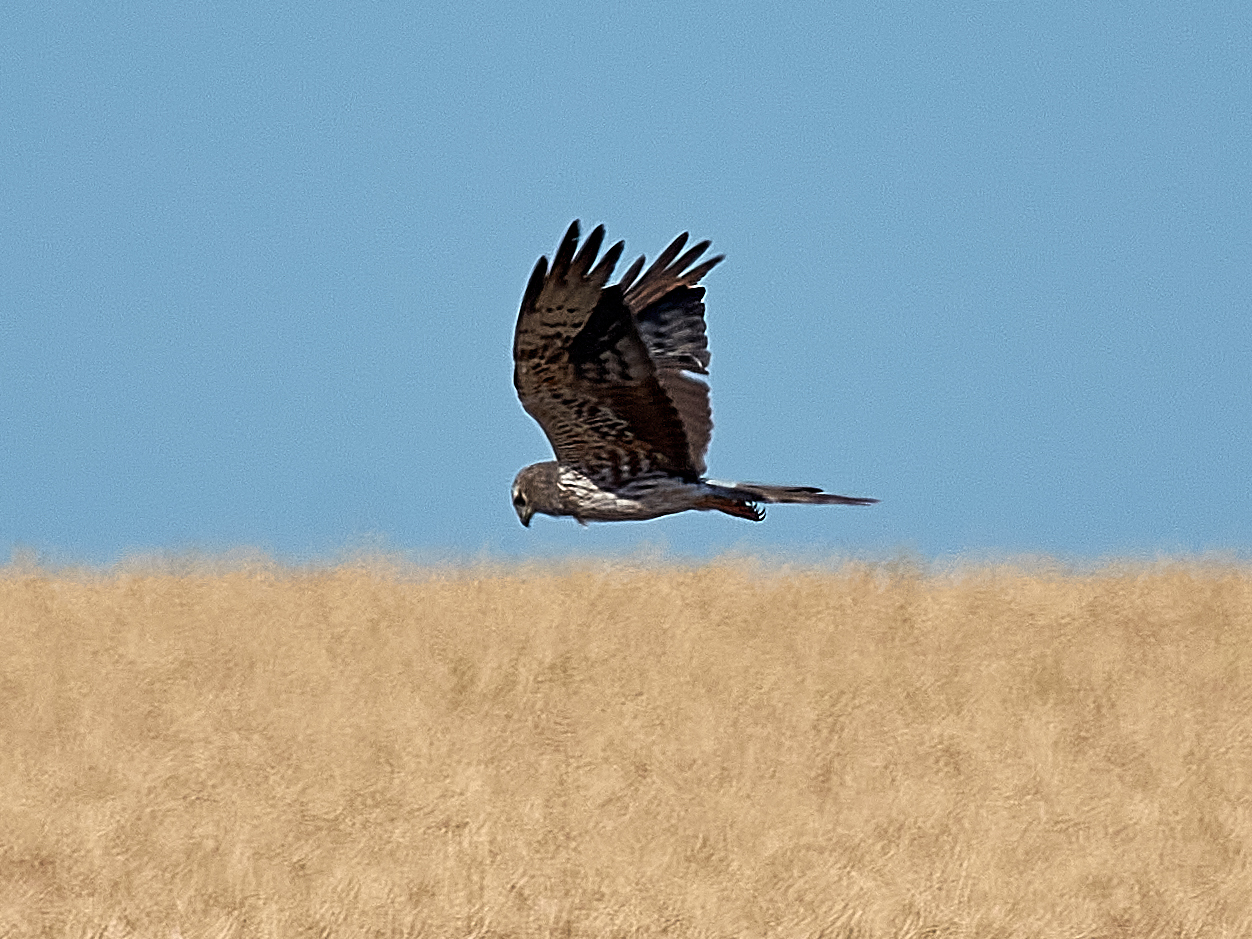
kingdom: Animalia
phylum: Chordata
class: Aves
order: Accipitriformes
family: Accipitridae
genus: Circus
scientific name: Circus pygargus
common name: Montagu's harrier
